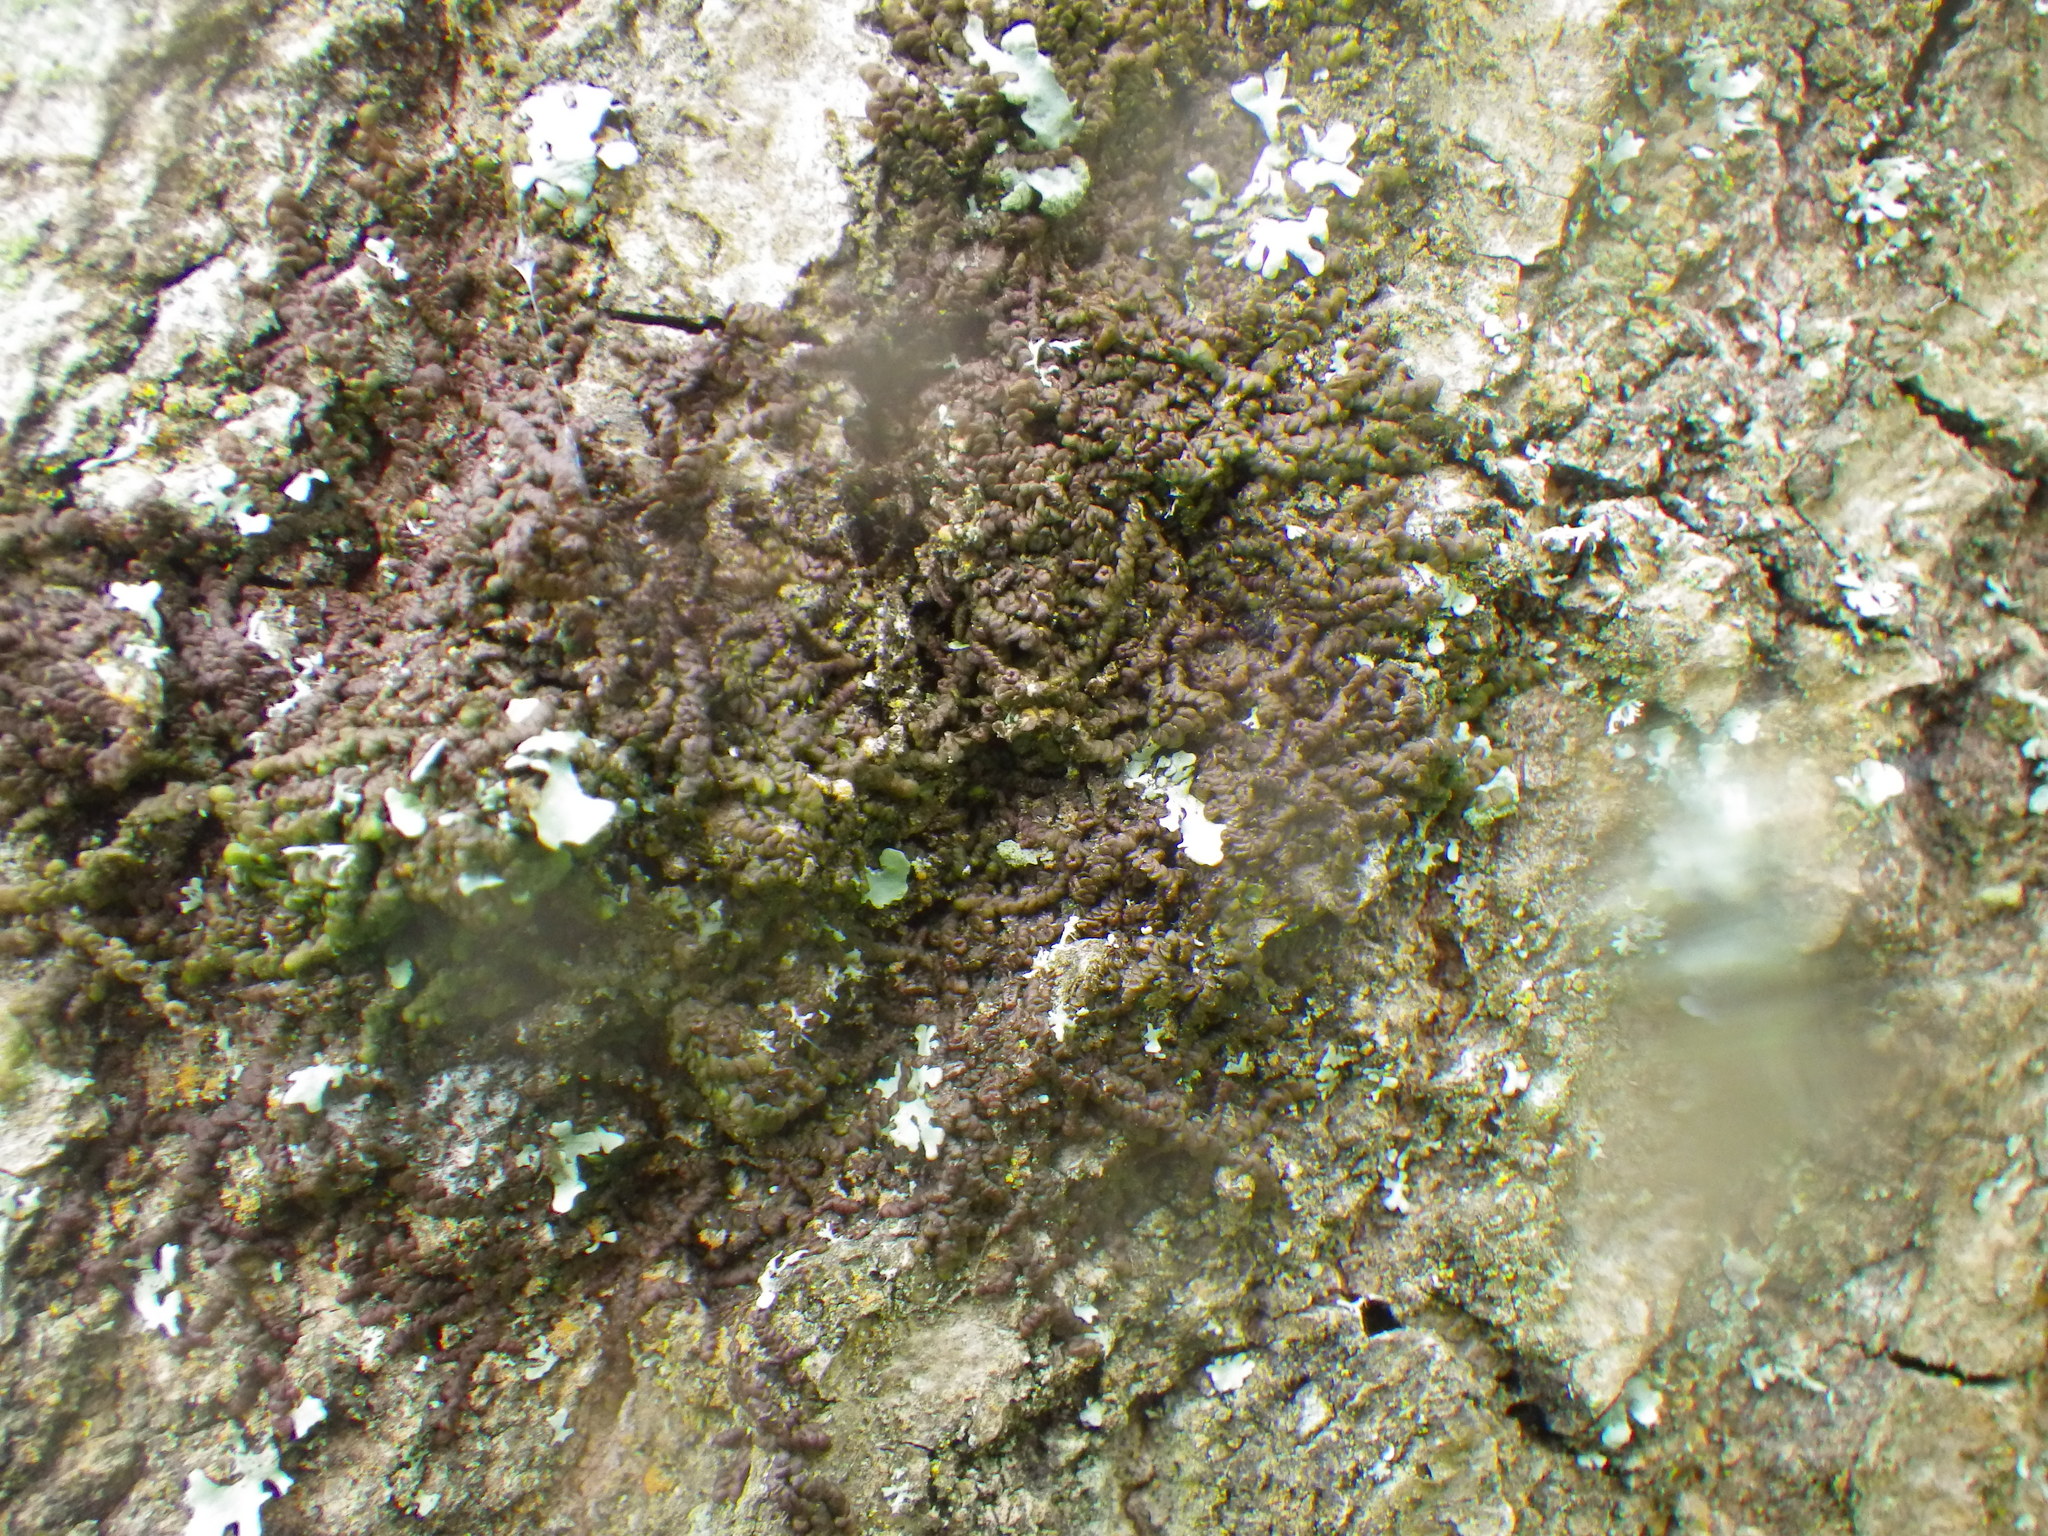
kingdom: Plantae
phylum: Marchantiophyta
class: Jungermanniopsida
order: Porellales
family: Frullaniaceae
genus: Frullania
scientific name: Frullania dilatata
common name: Dilated scalewort
